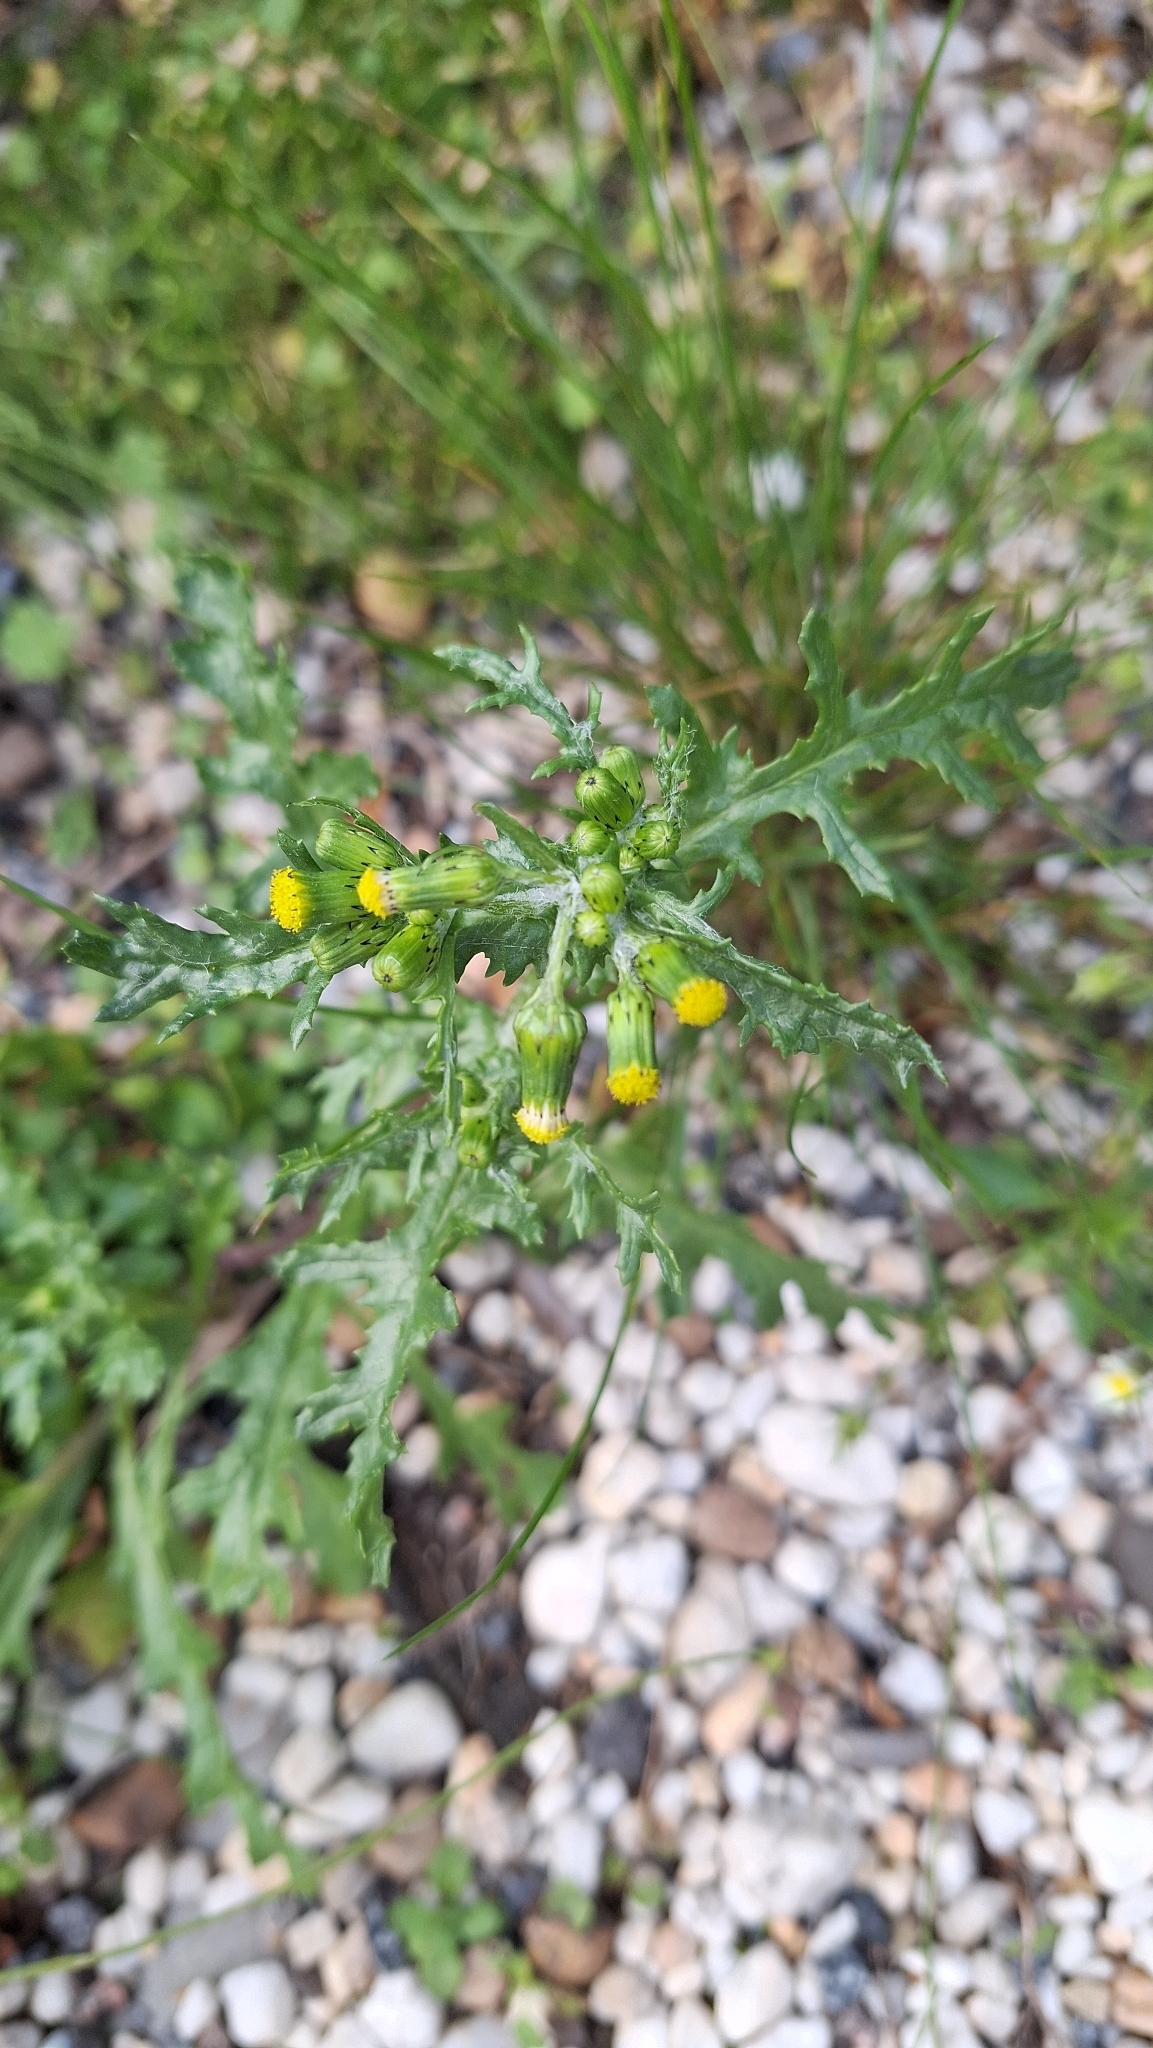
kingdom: Plantae
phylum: Tracheophyta
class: Magnoliopsida
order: Asterales
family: Asteraceae
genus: Senecio
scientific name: Senecio vulgaris
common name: Old-man-in-the-spring
